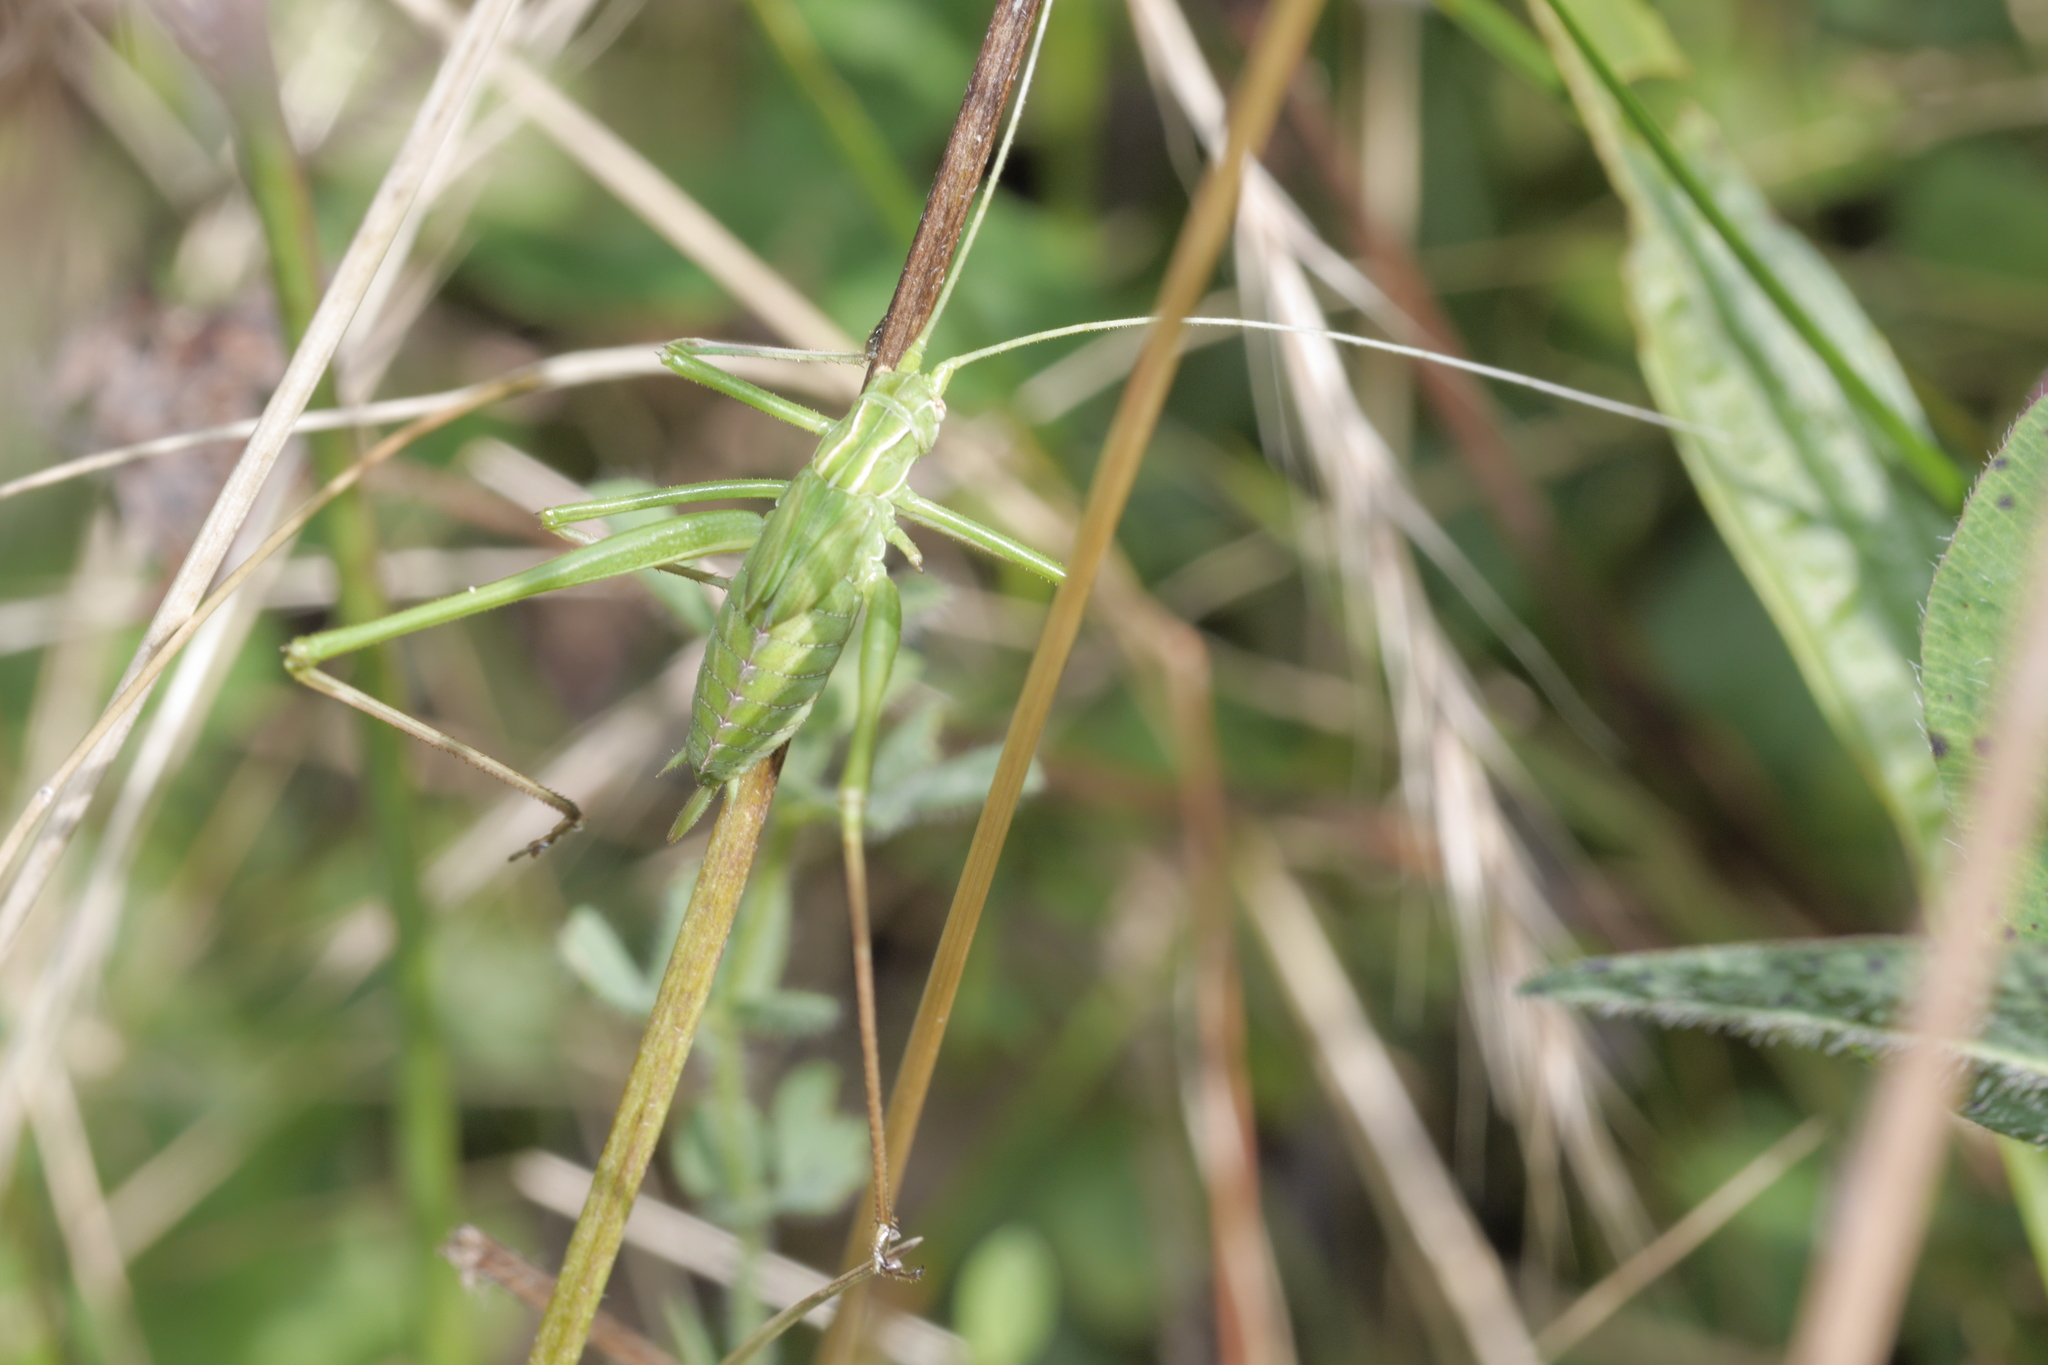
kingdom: Animalia
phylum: Arthropoda
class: Insecta
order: Orthoptera
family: Tettigoniidae
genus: Tylopsis
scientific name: Tylopsis lilifolia
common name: Lily bush-cricket
